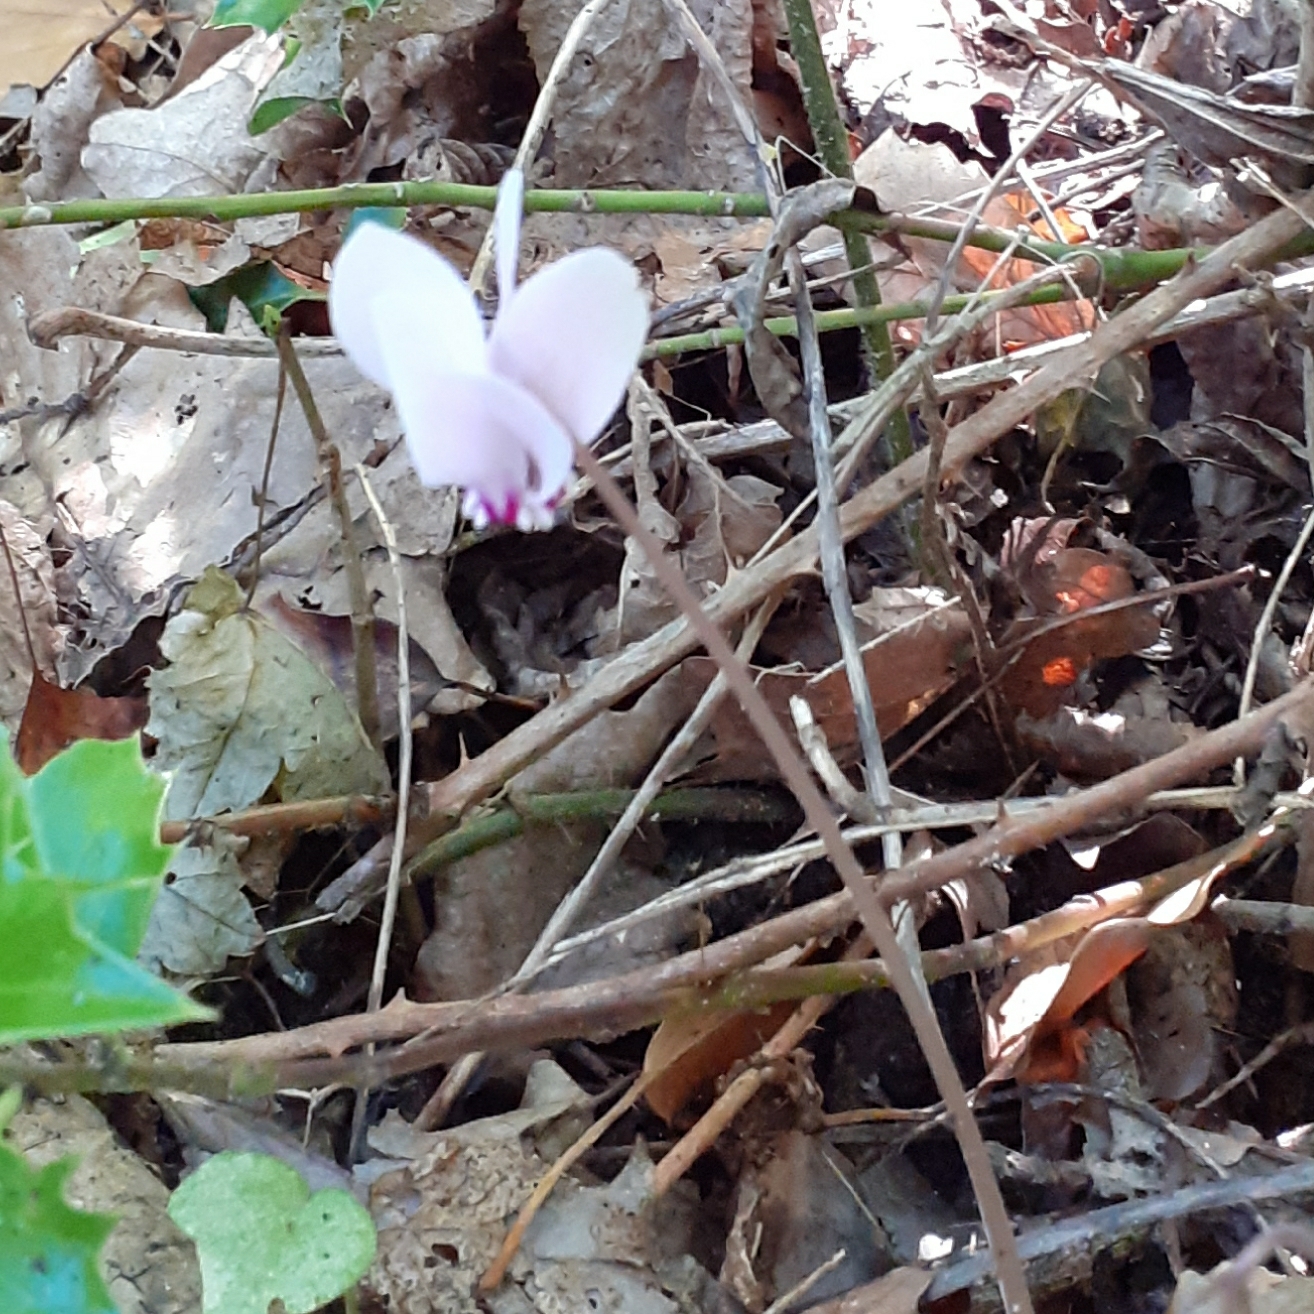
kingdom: Plantae
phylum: Tracheophyta
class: Magnoliopsida
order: Ericales
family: Primulaceae
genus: Cyclamen
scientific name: Cyclamen hederifolium
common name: Sowbread
